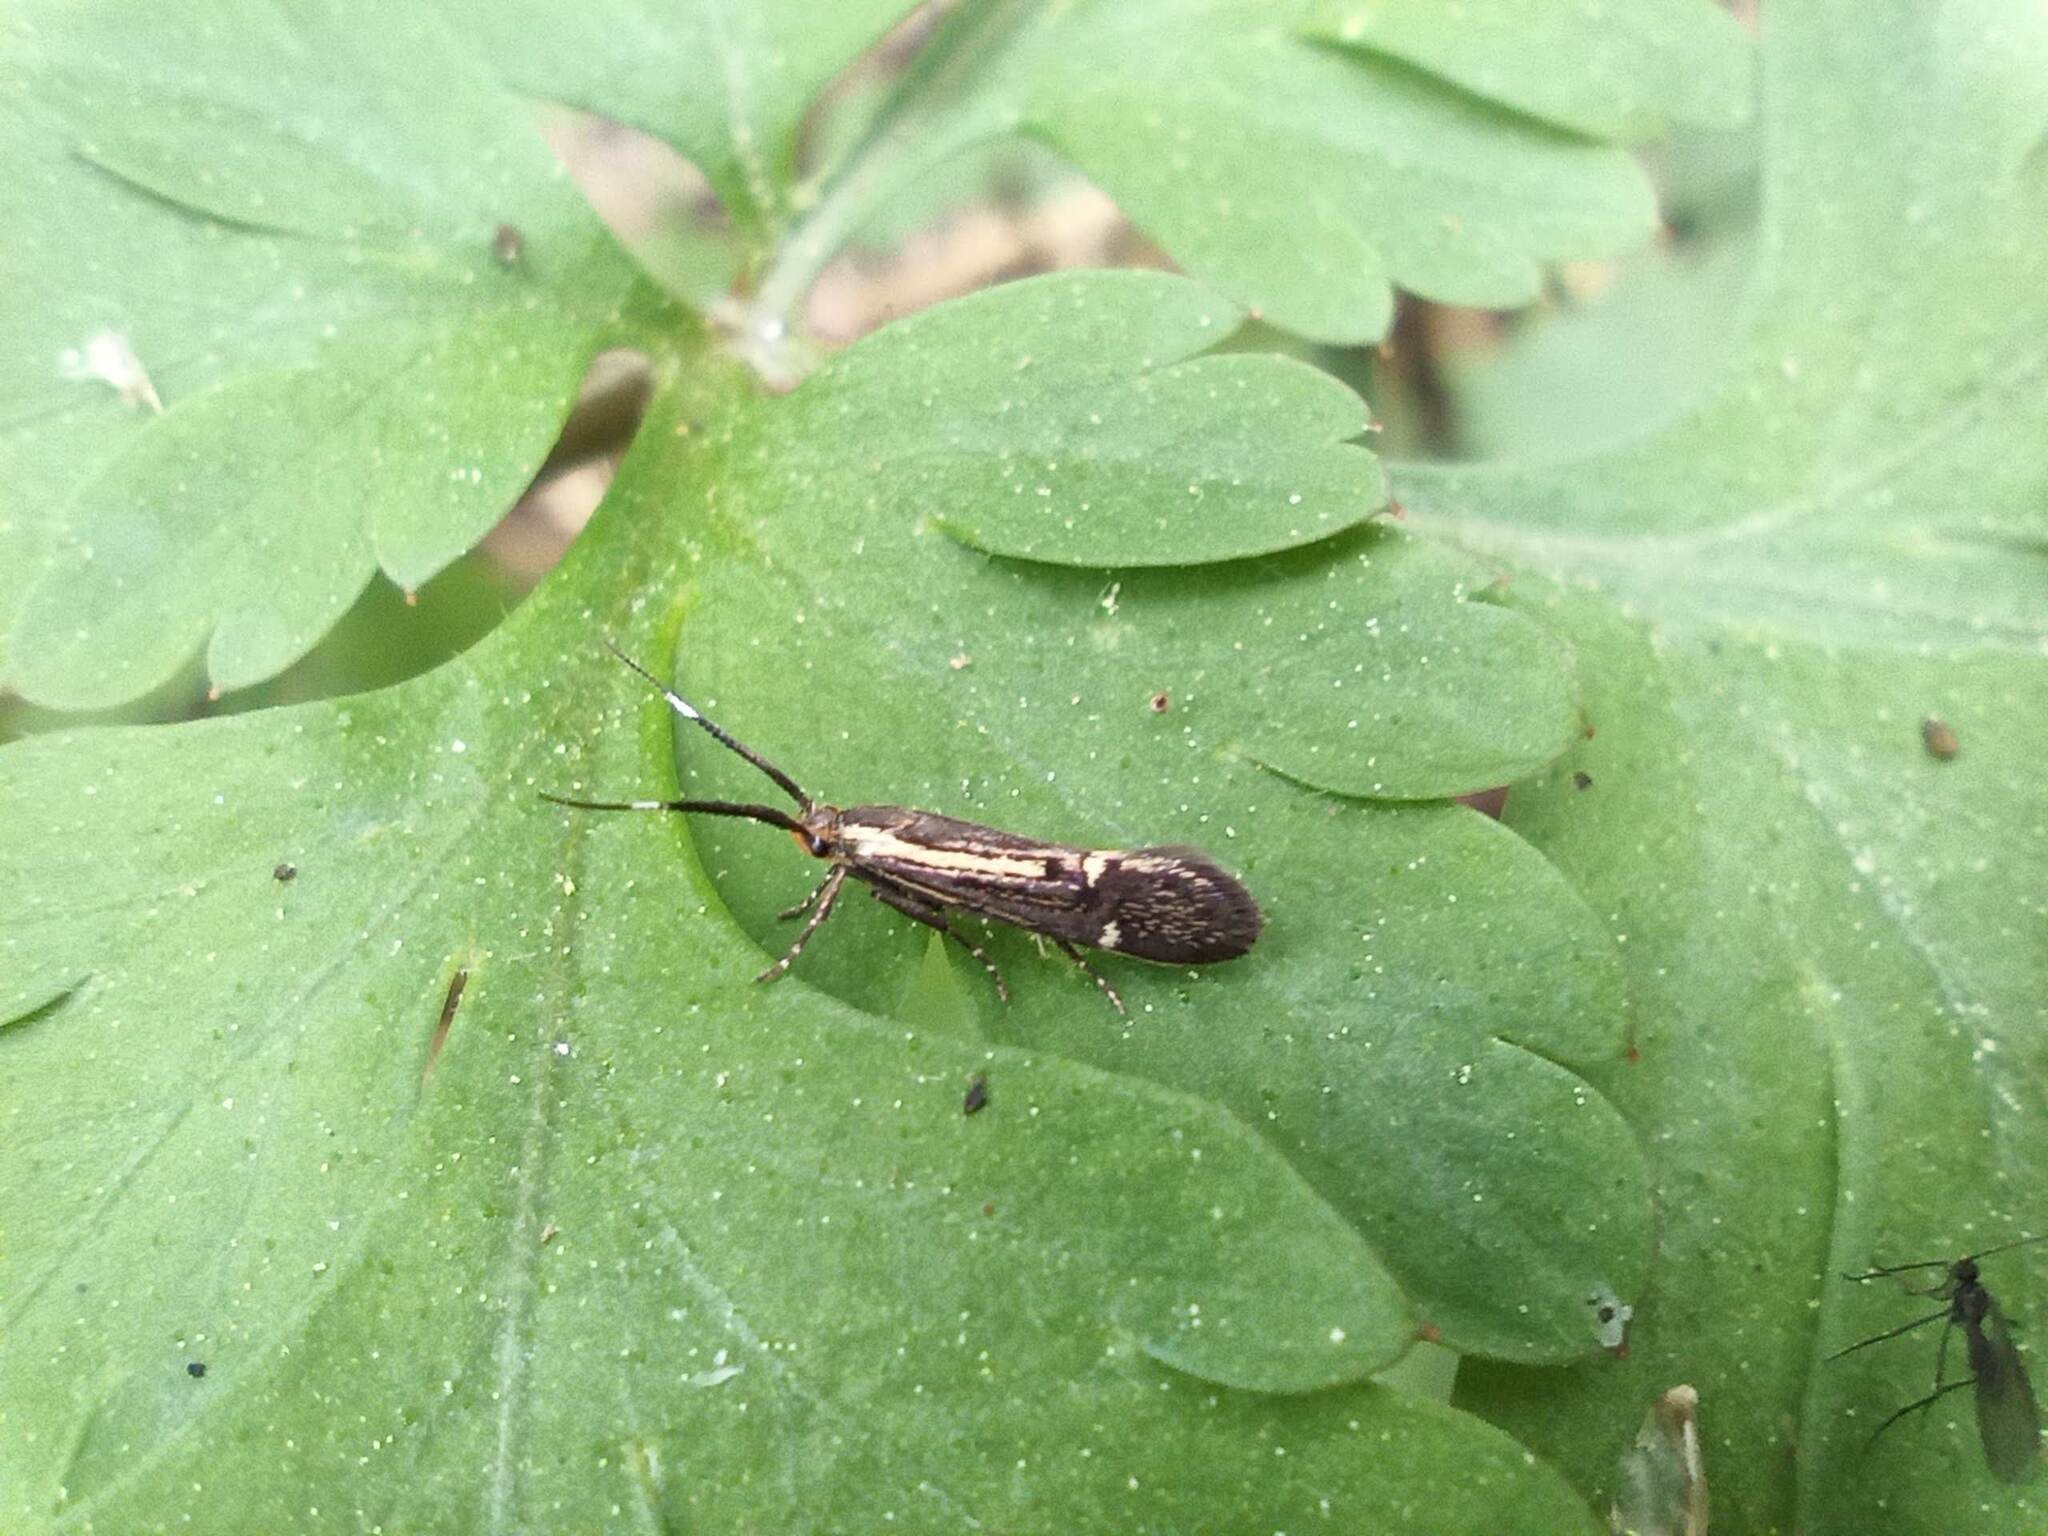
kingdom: Animalia
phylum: Arthropoda
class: Insecta
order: Lepidoptera
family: Oecophoridae
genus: Dafa
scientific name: Dafa Esperia sulphurella
